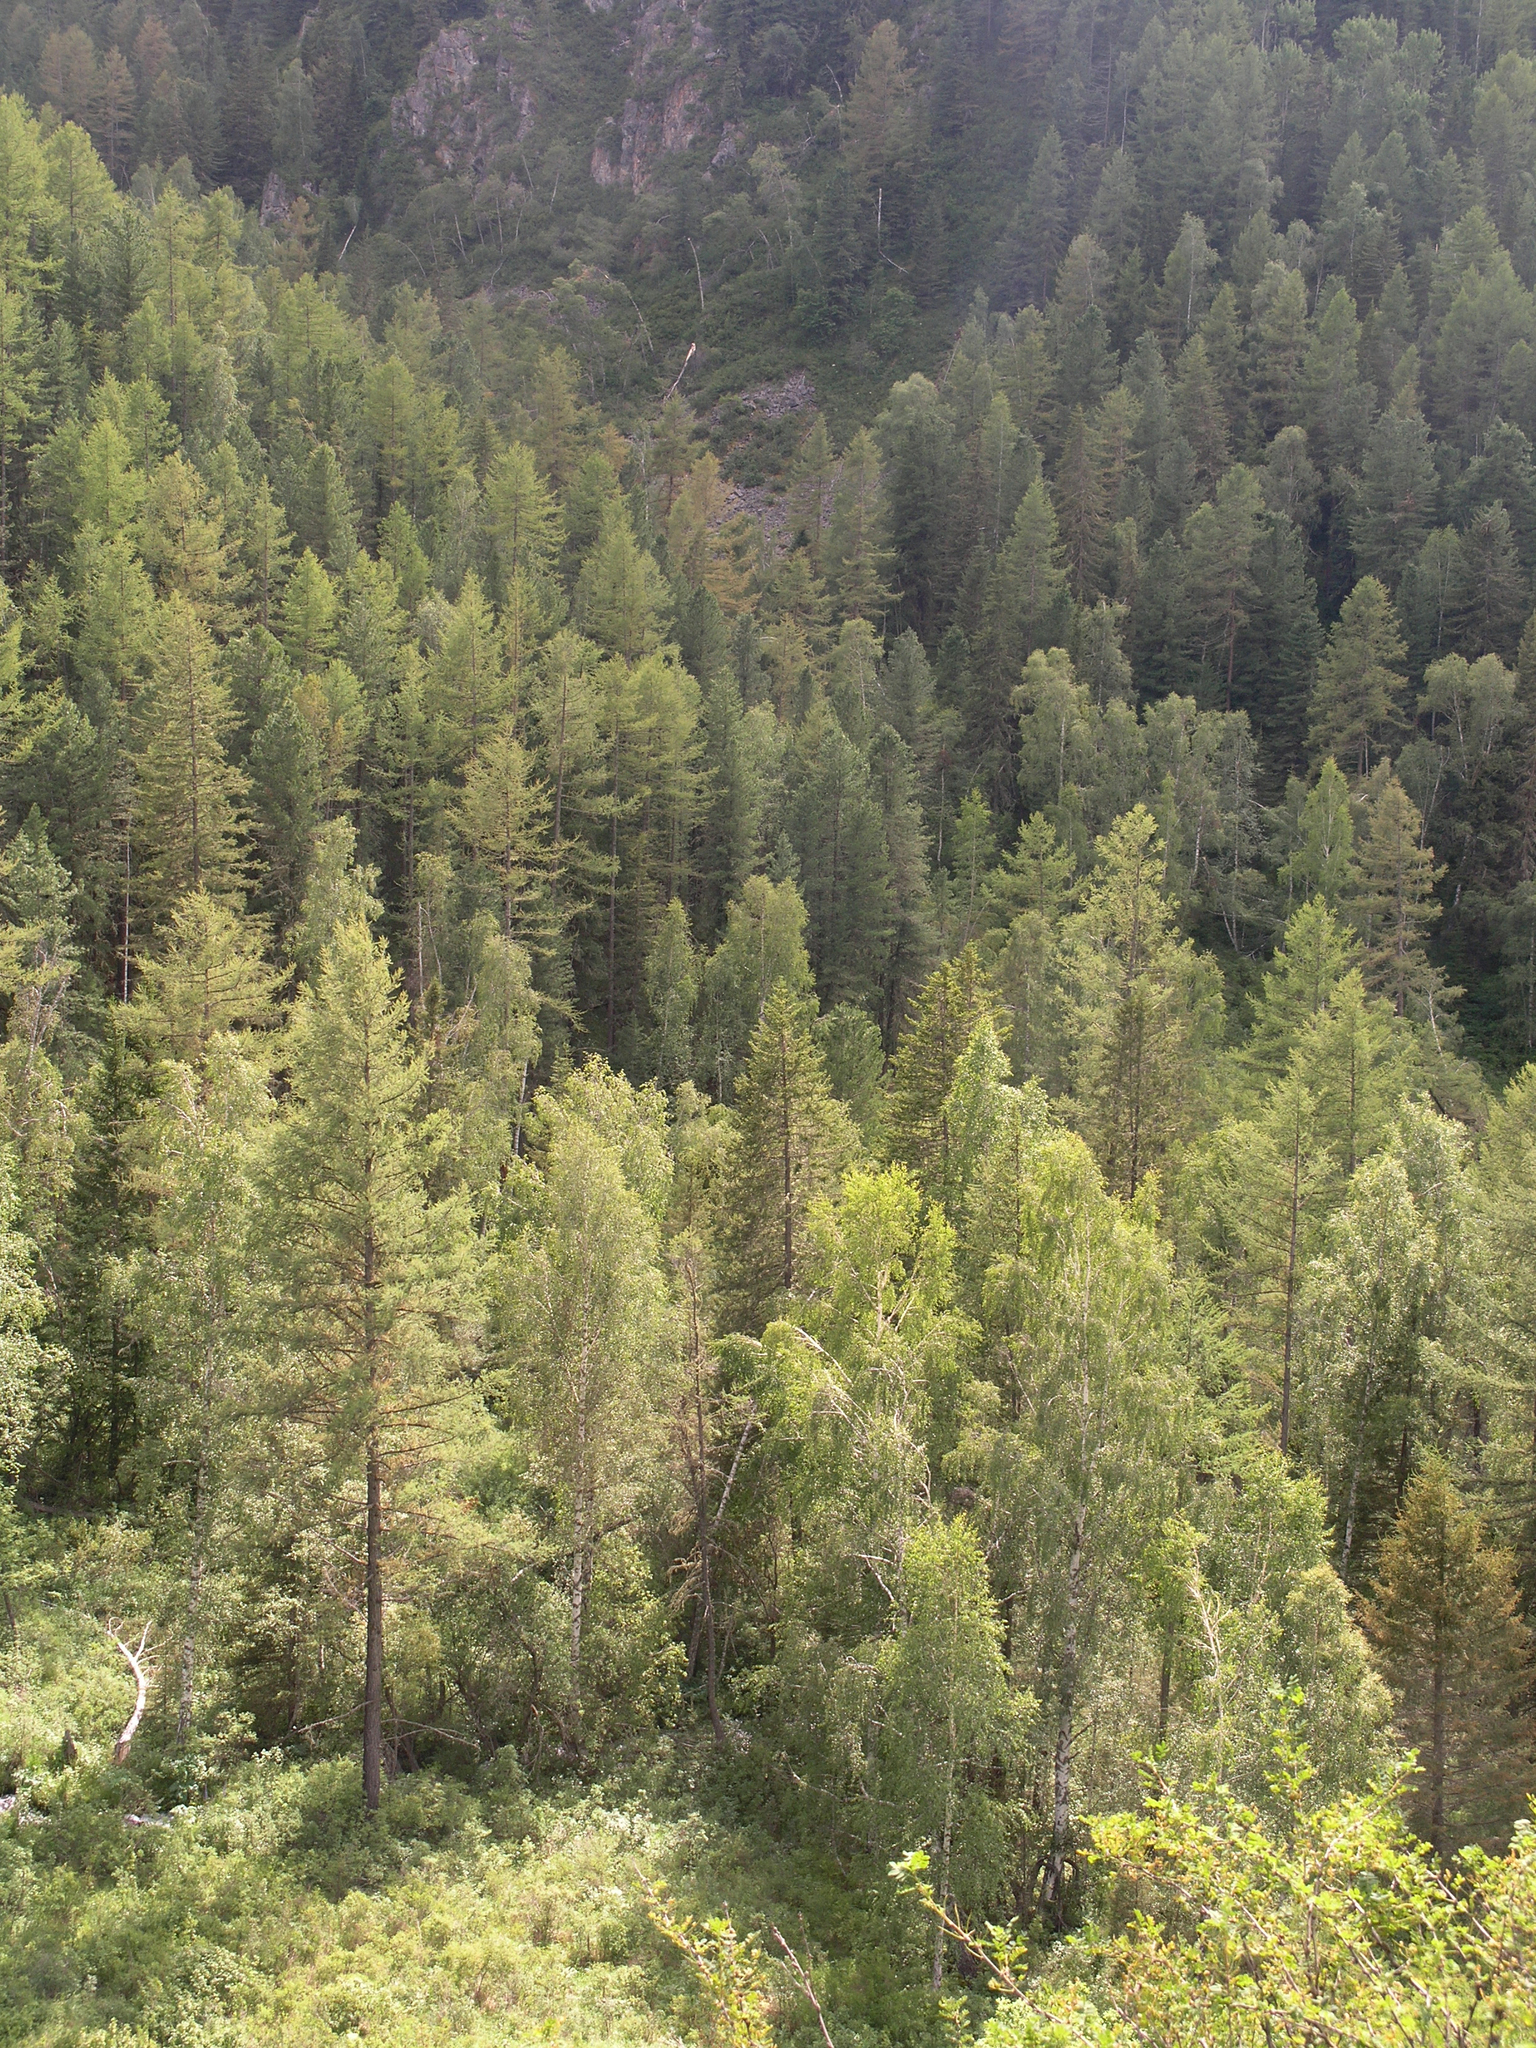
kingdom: Plantae
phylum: Tracheophyta
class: Magnoliopsida
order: Fagales
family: Betulaceae
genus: Betula
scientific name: Betula pendula
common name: Silver birch
